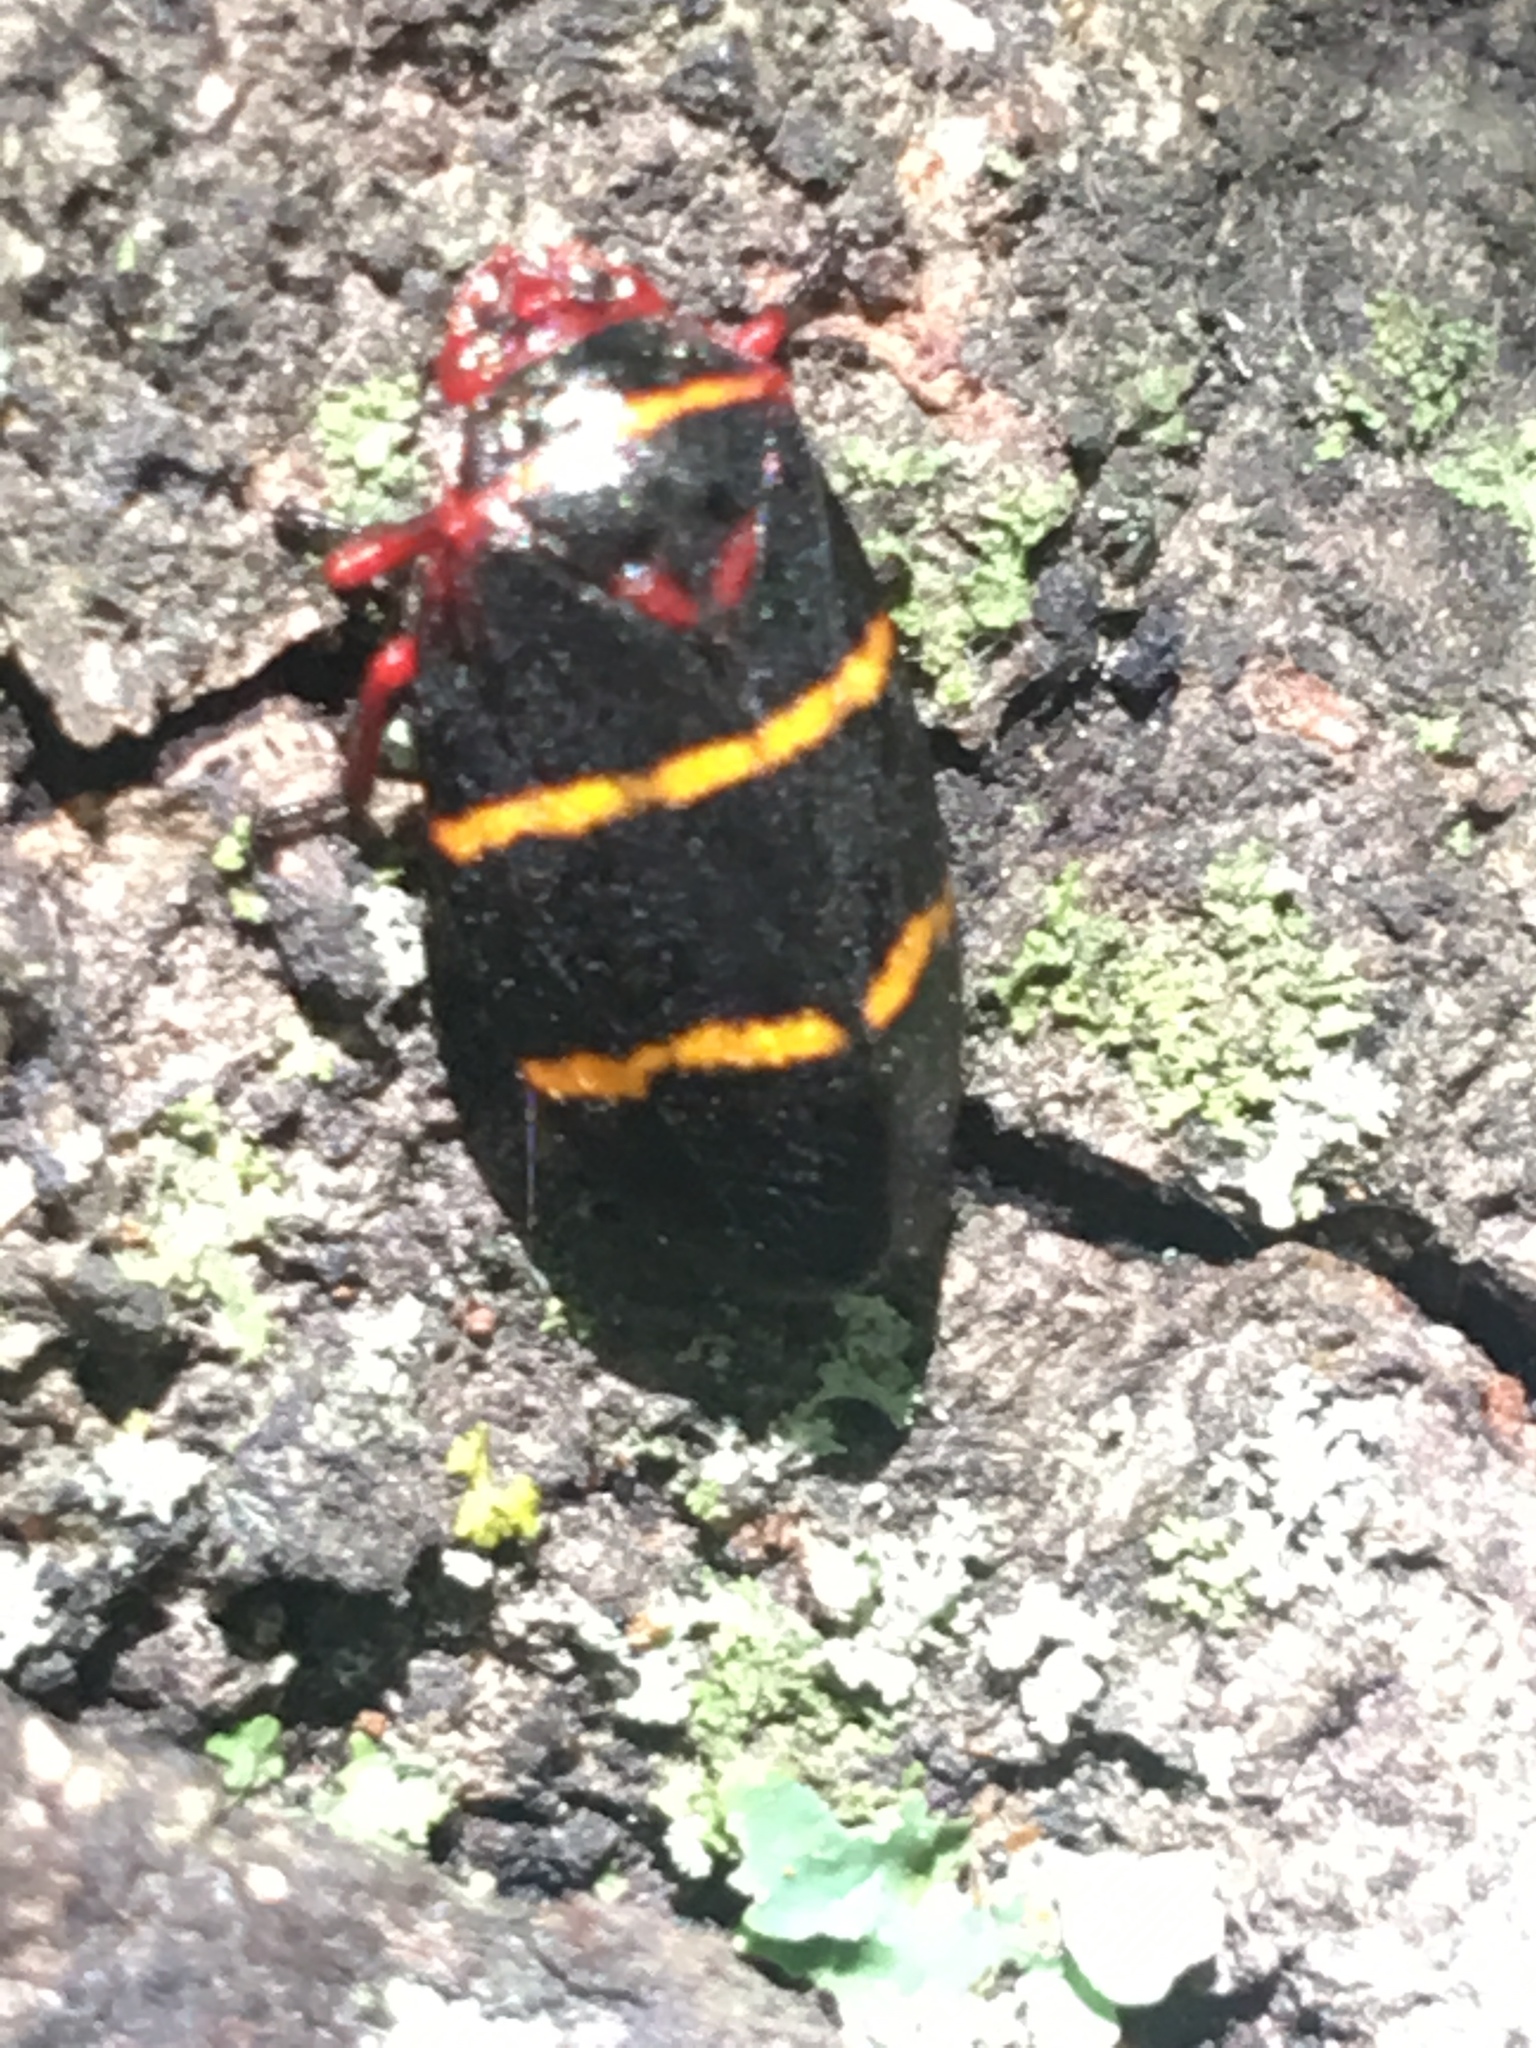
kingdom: Animalia
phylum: Arthropoda
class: Insecta
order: Hemiptera
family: Cercopidae
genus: Prosapia
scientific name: Prosapia bicincta
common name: Twolined spittlebug
